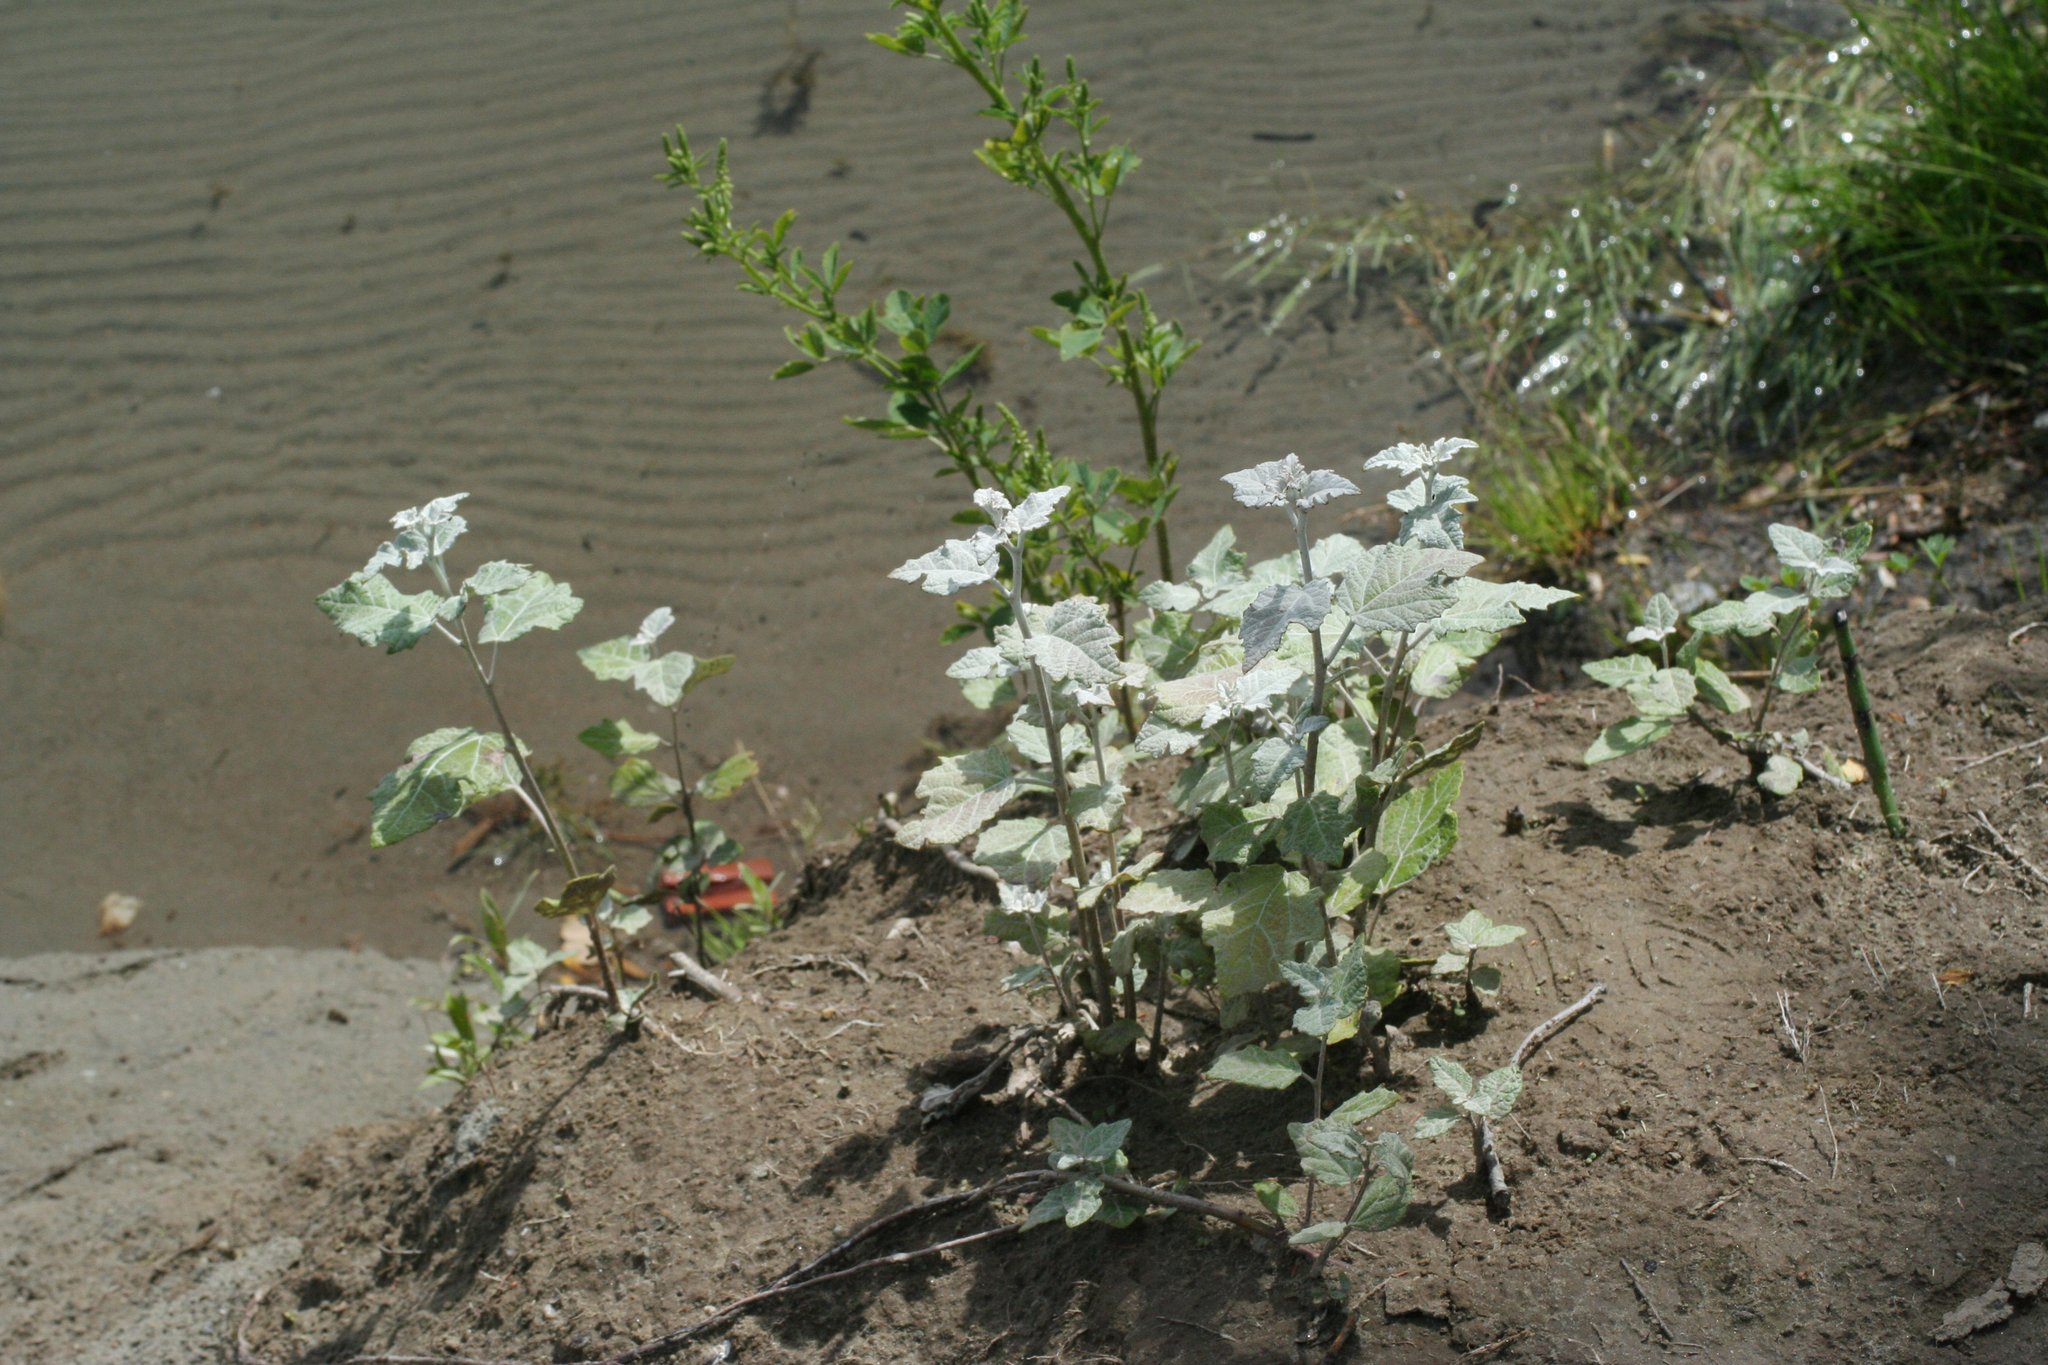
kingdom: Plantae
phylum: Tracheophyta
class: Magnoliopsida
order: Malpighiales
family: Salicaceae
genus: Populus
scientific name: Populus alba
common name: White poplar
